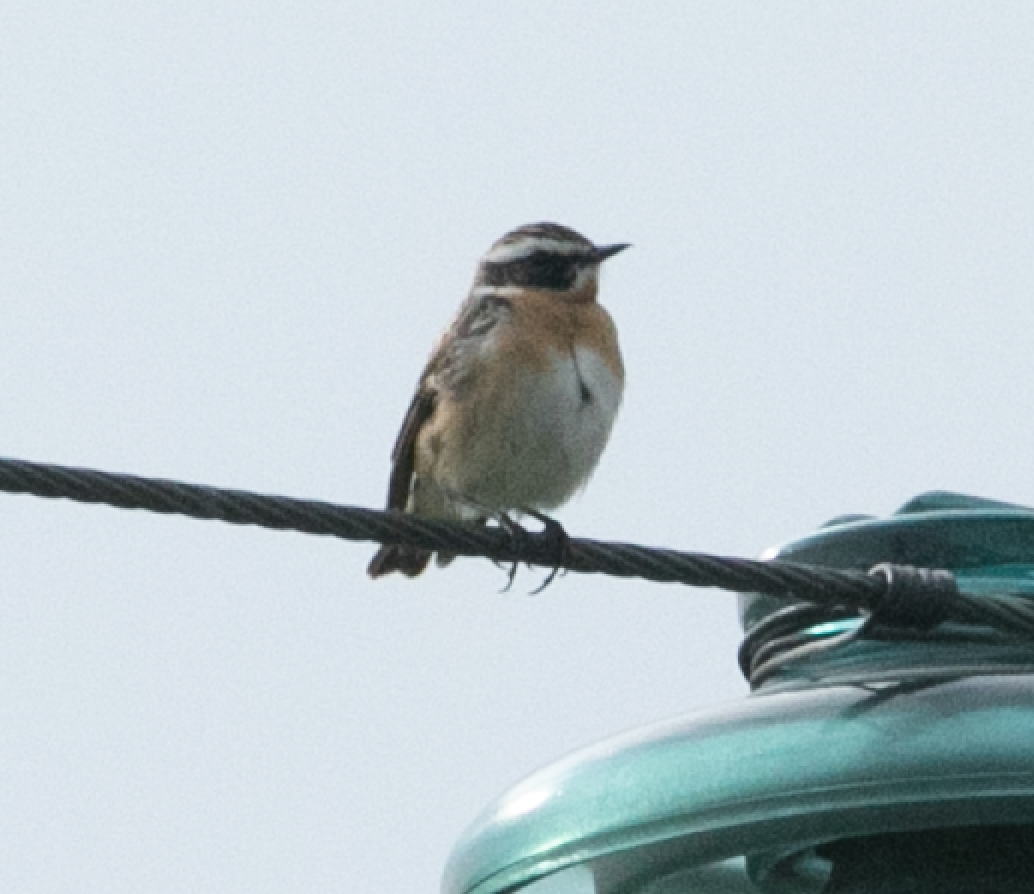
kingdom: Animalia
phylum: Chordata
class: Aves
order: Passeriformes
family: Muscicapidae
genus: Saxicola
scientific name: Saxicola rubetra
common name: Whinchat
